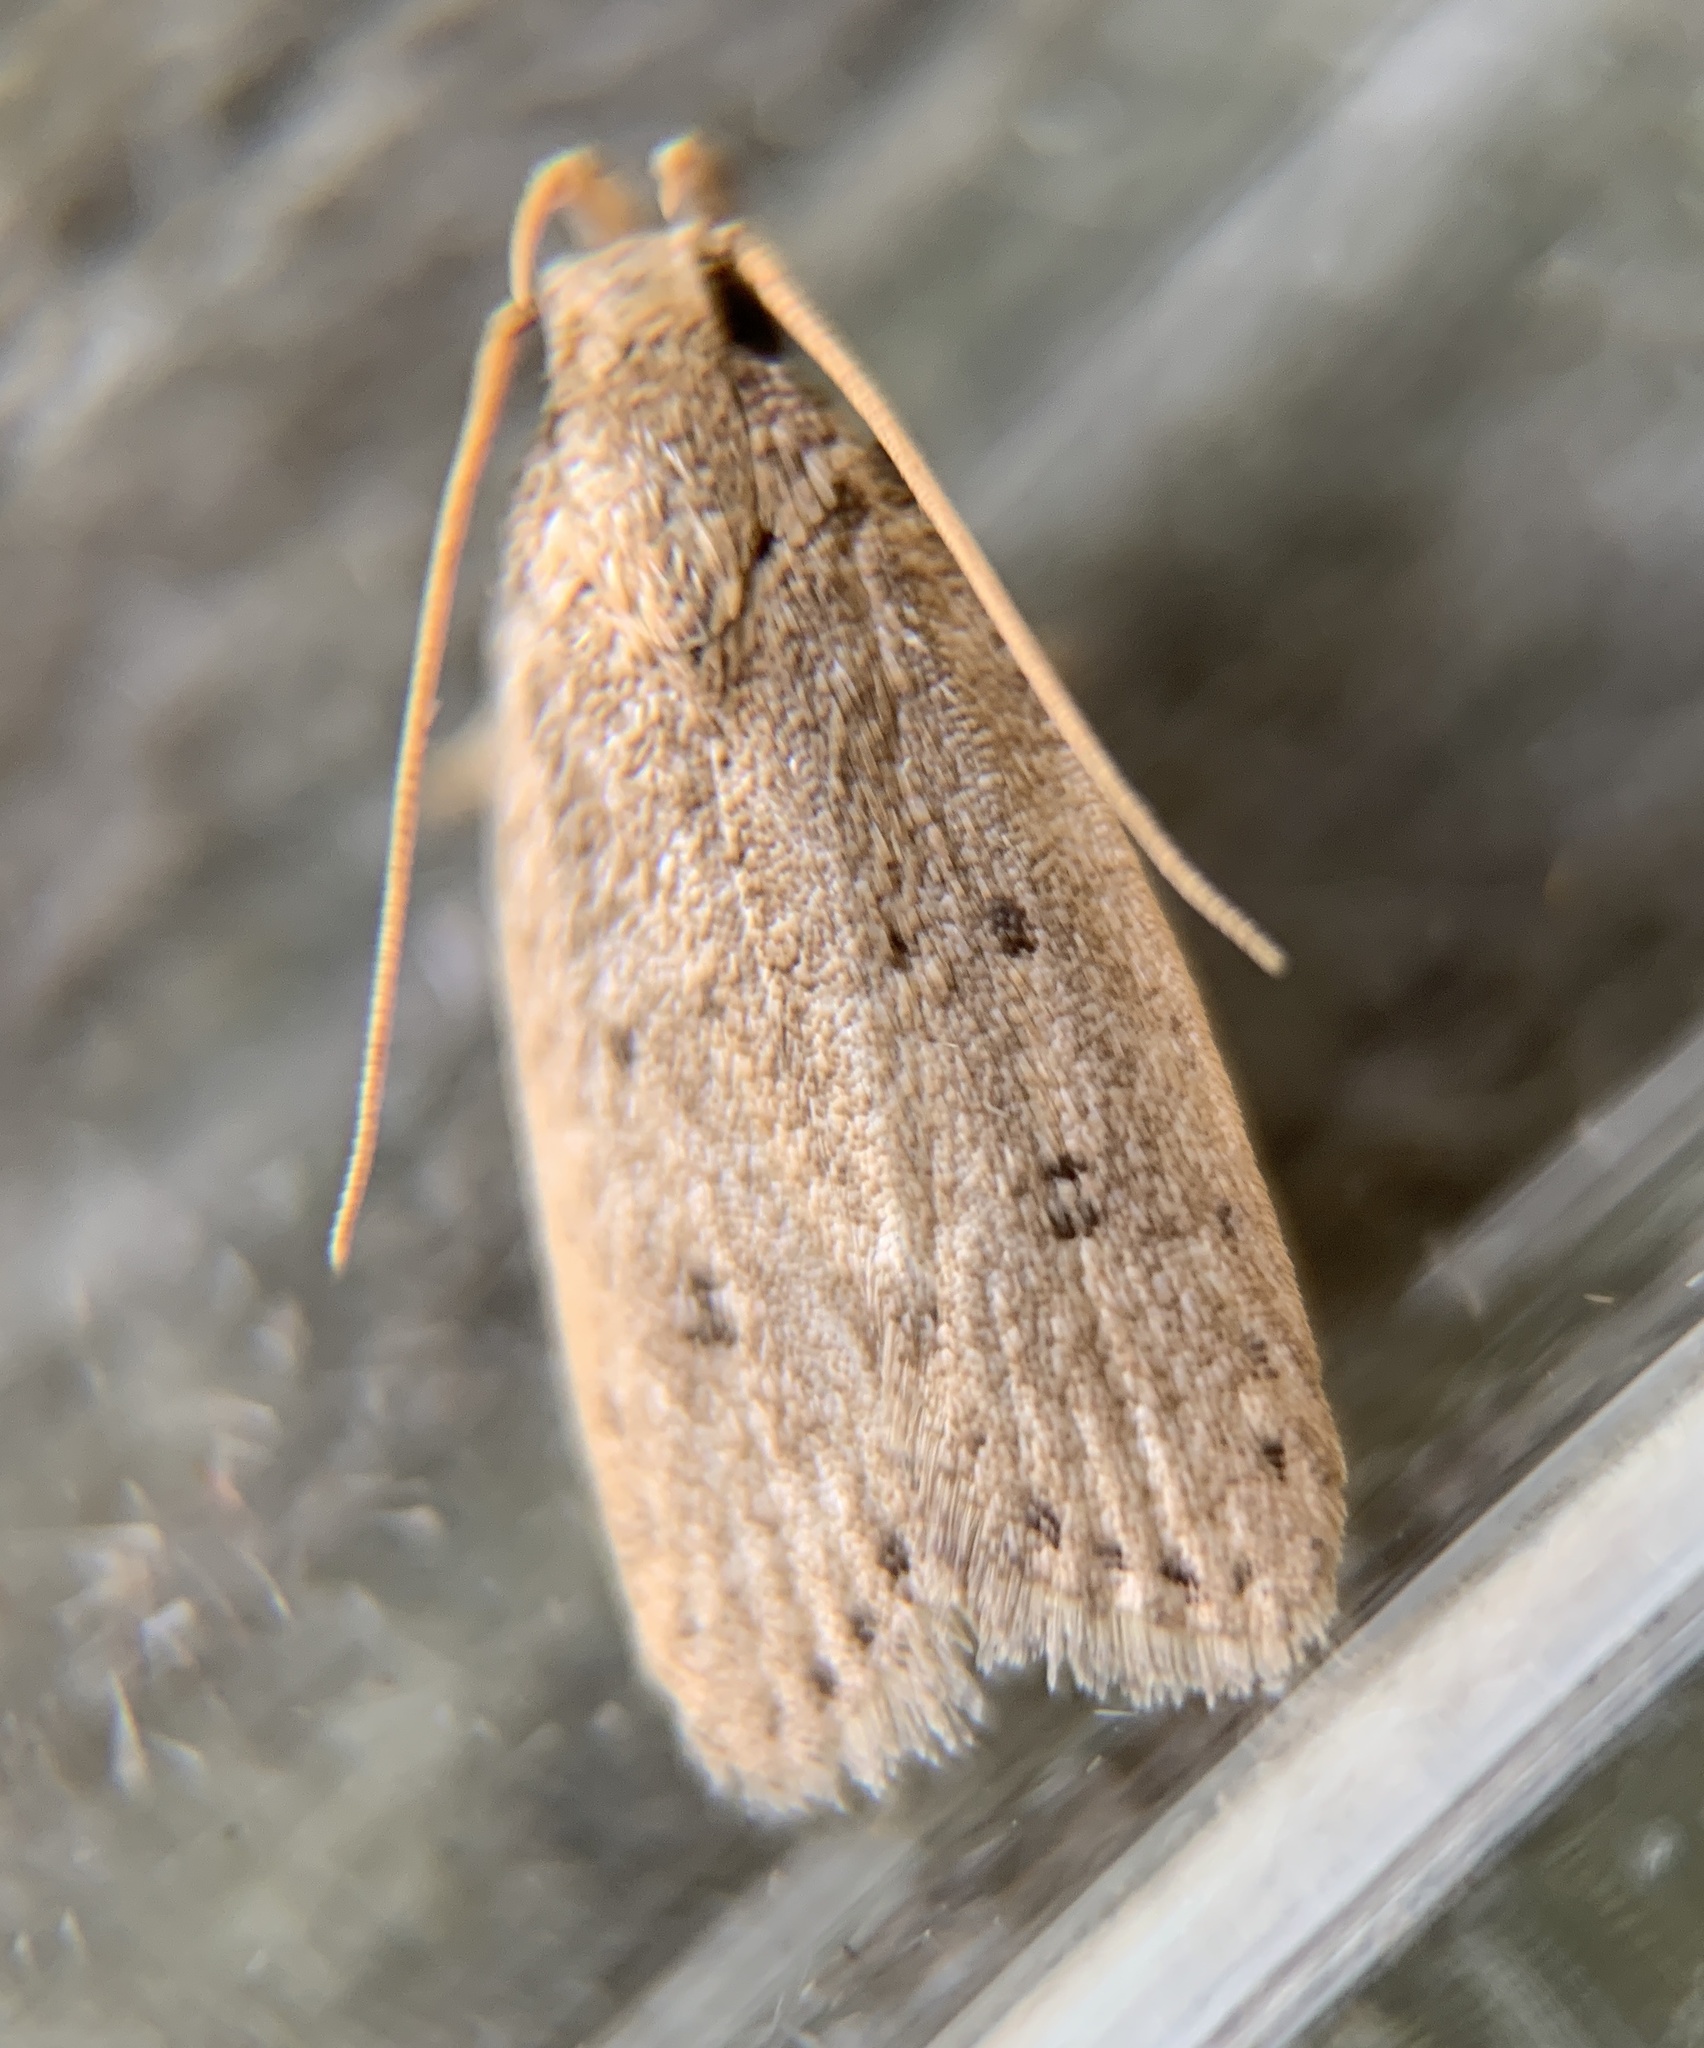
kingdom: Animalia
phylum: Arthropoda
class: Insecta
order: Lepidoptera
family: Autostichidae
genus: Autosticha
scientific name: Autosticha kyotensis
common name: Kyoto moth
